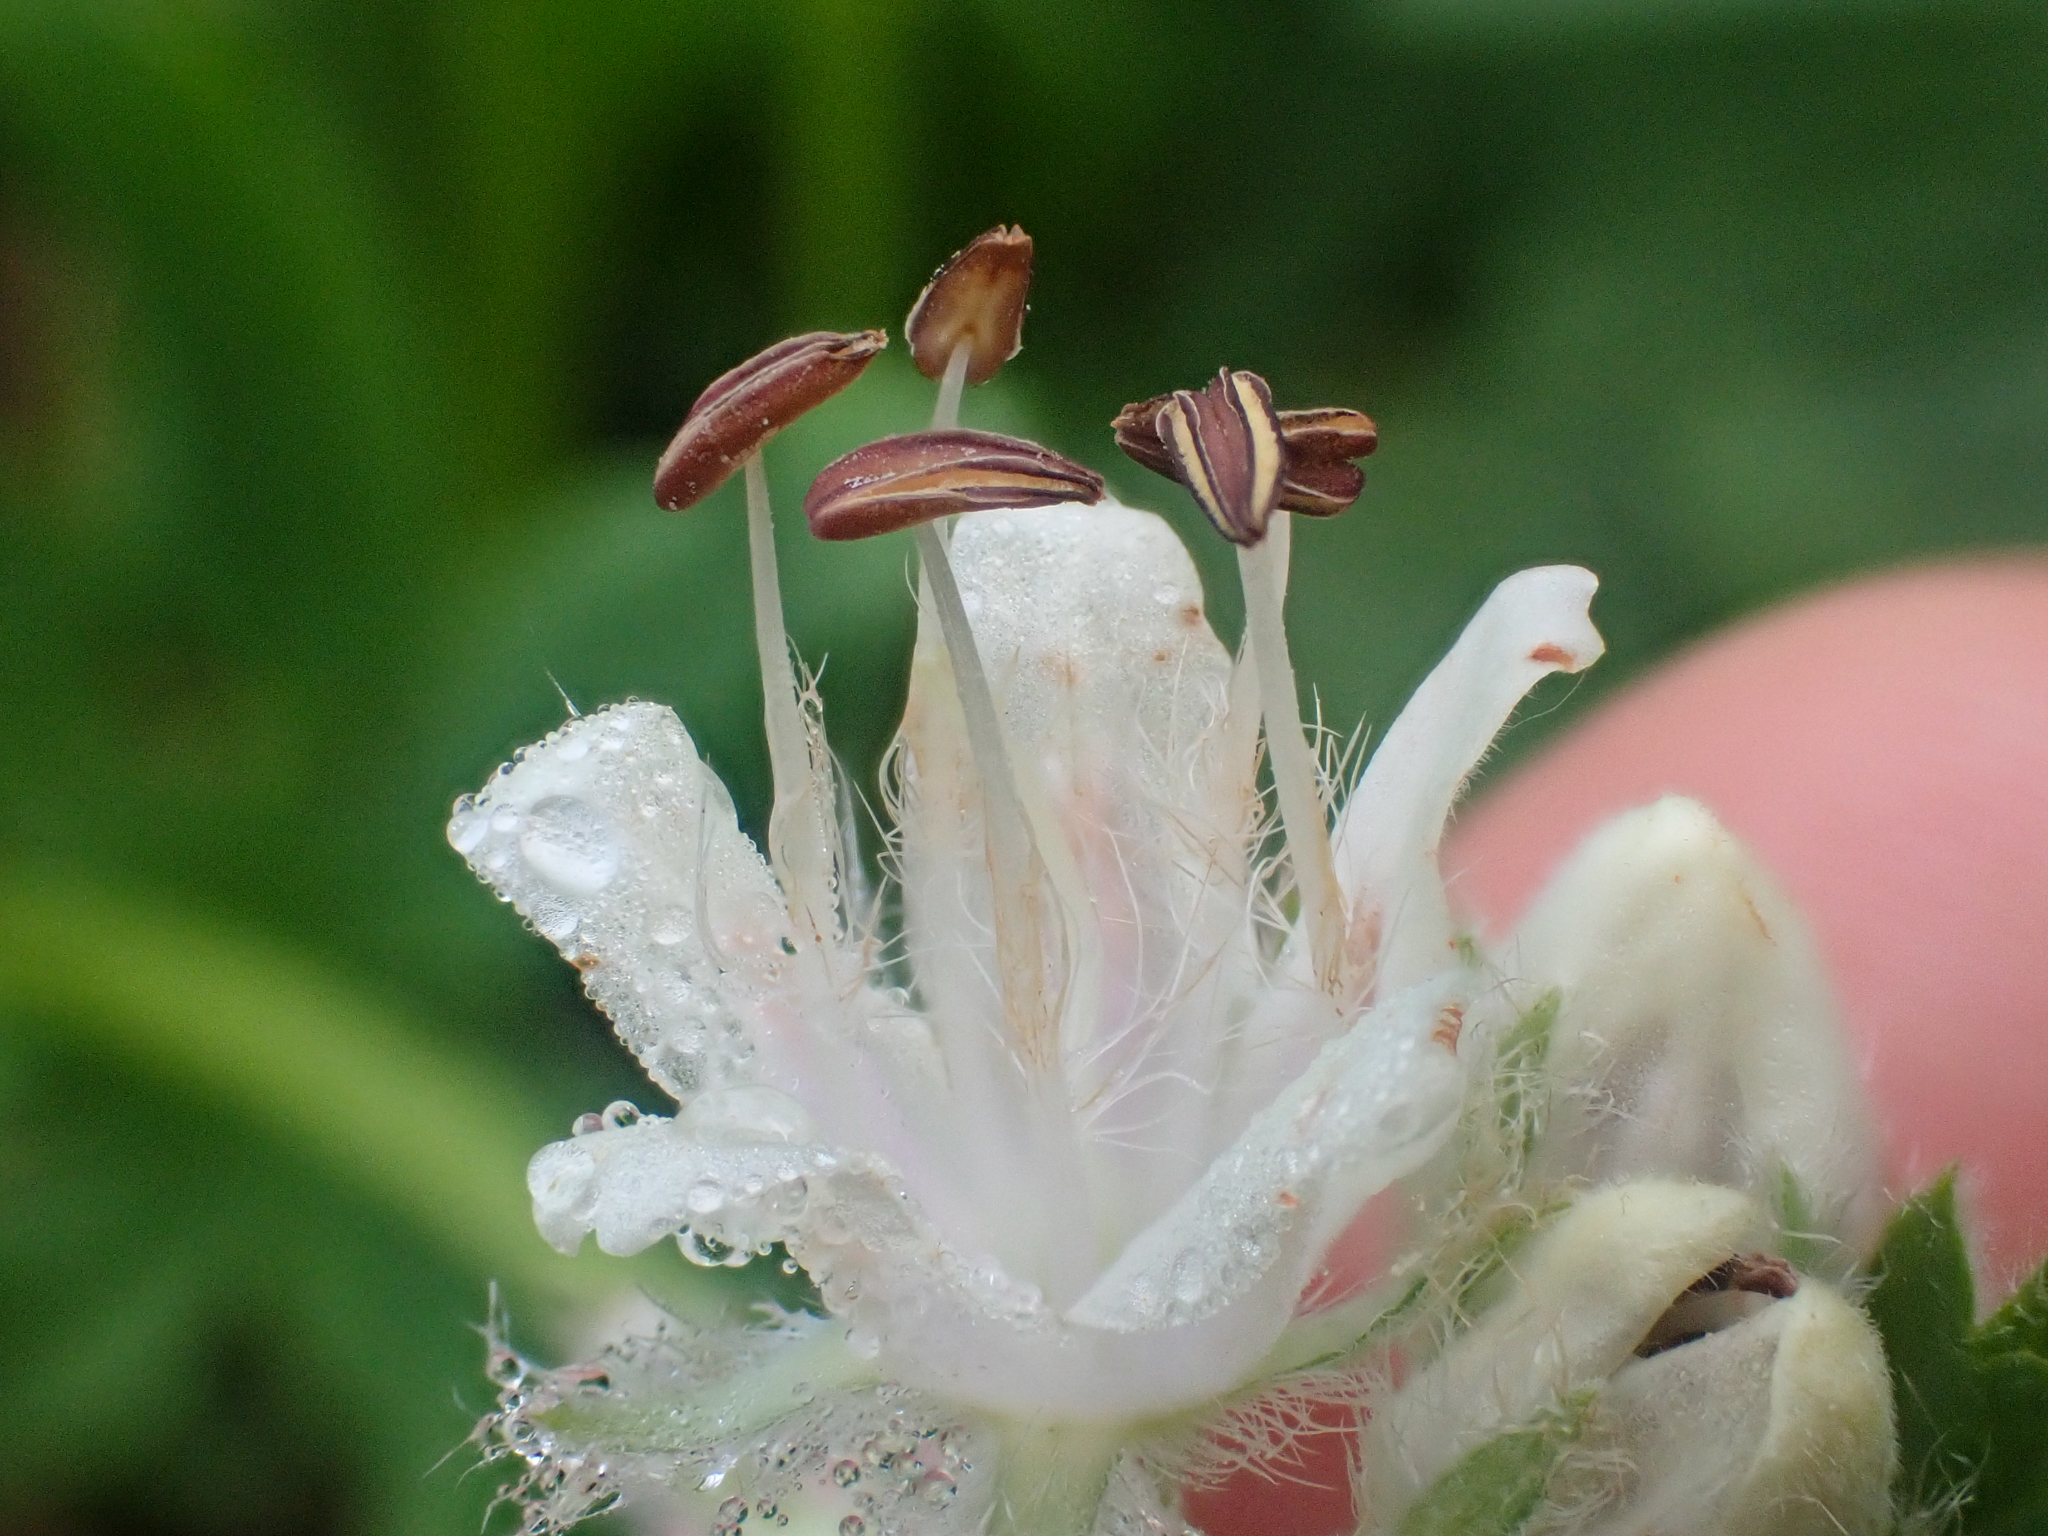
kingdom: Plantae
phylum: Tracheophyta
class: Magnoliopsida
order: Boraginales
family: Hydrophyllaceae
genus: Hydrophyllum
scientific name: Hydrophyllum fendleri
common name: Fendler's waterleaf
